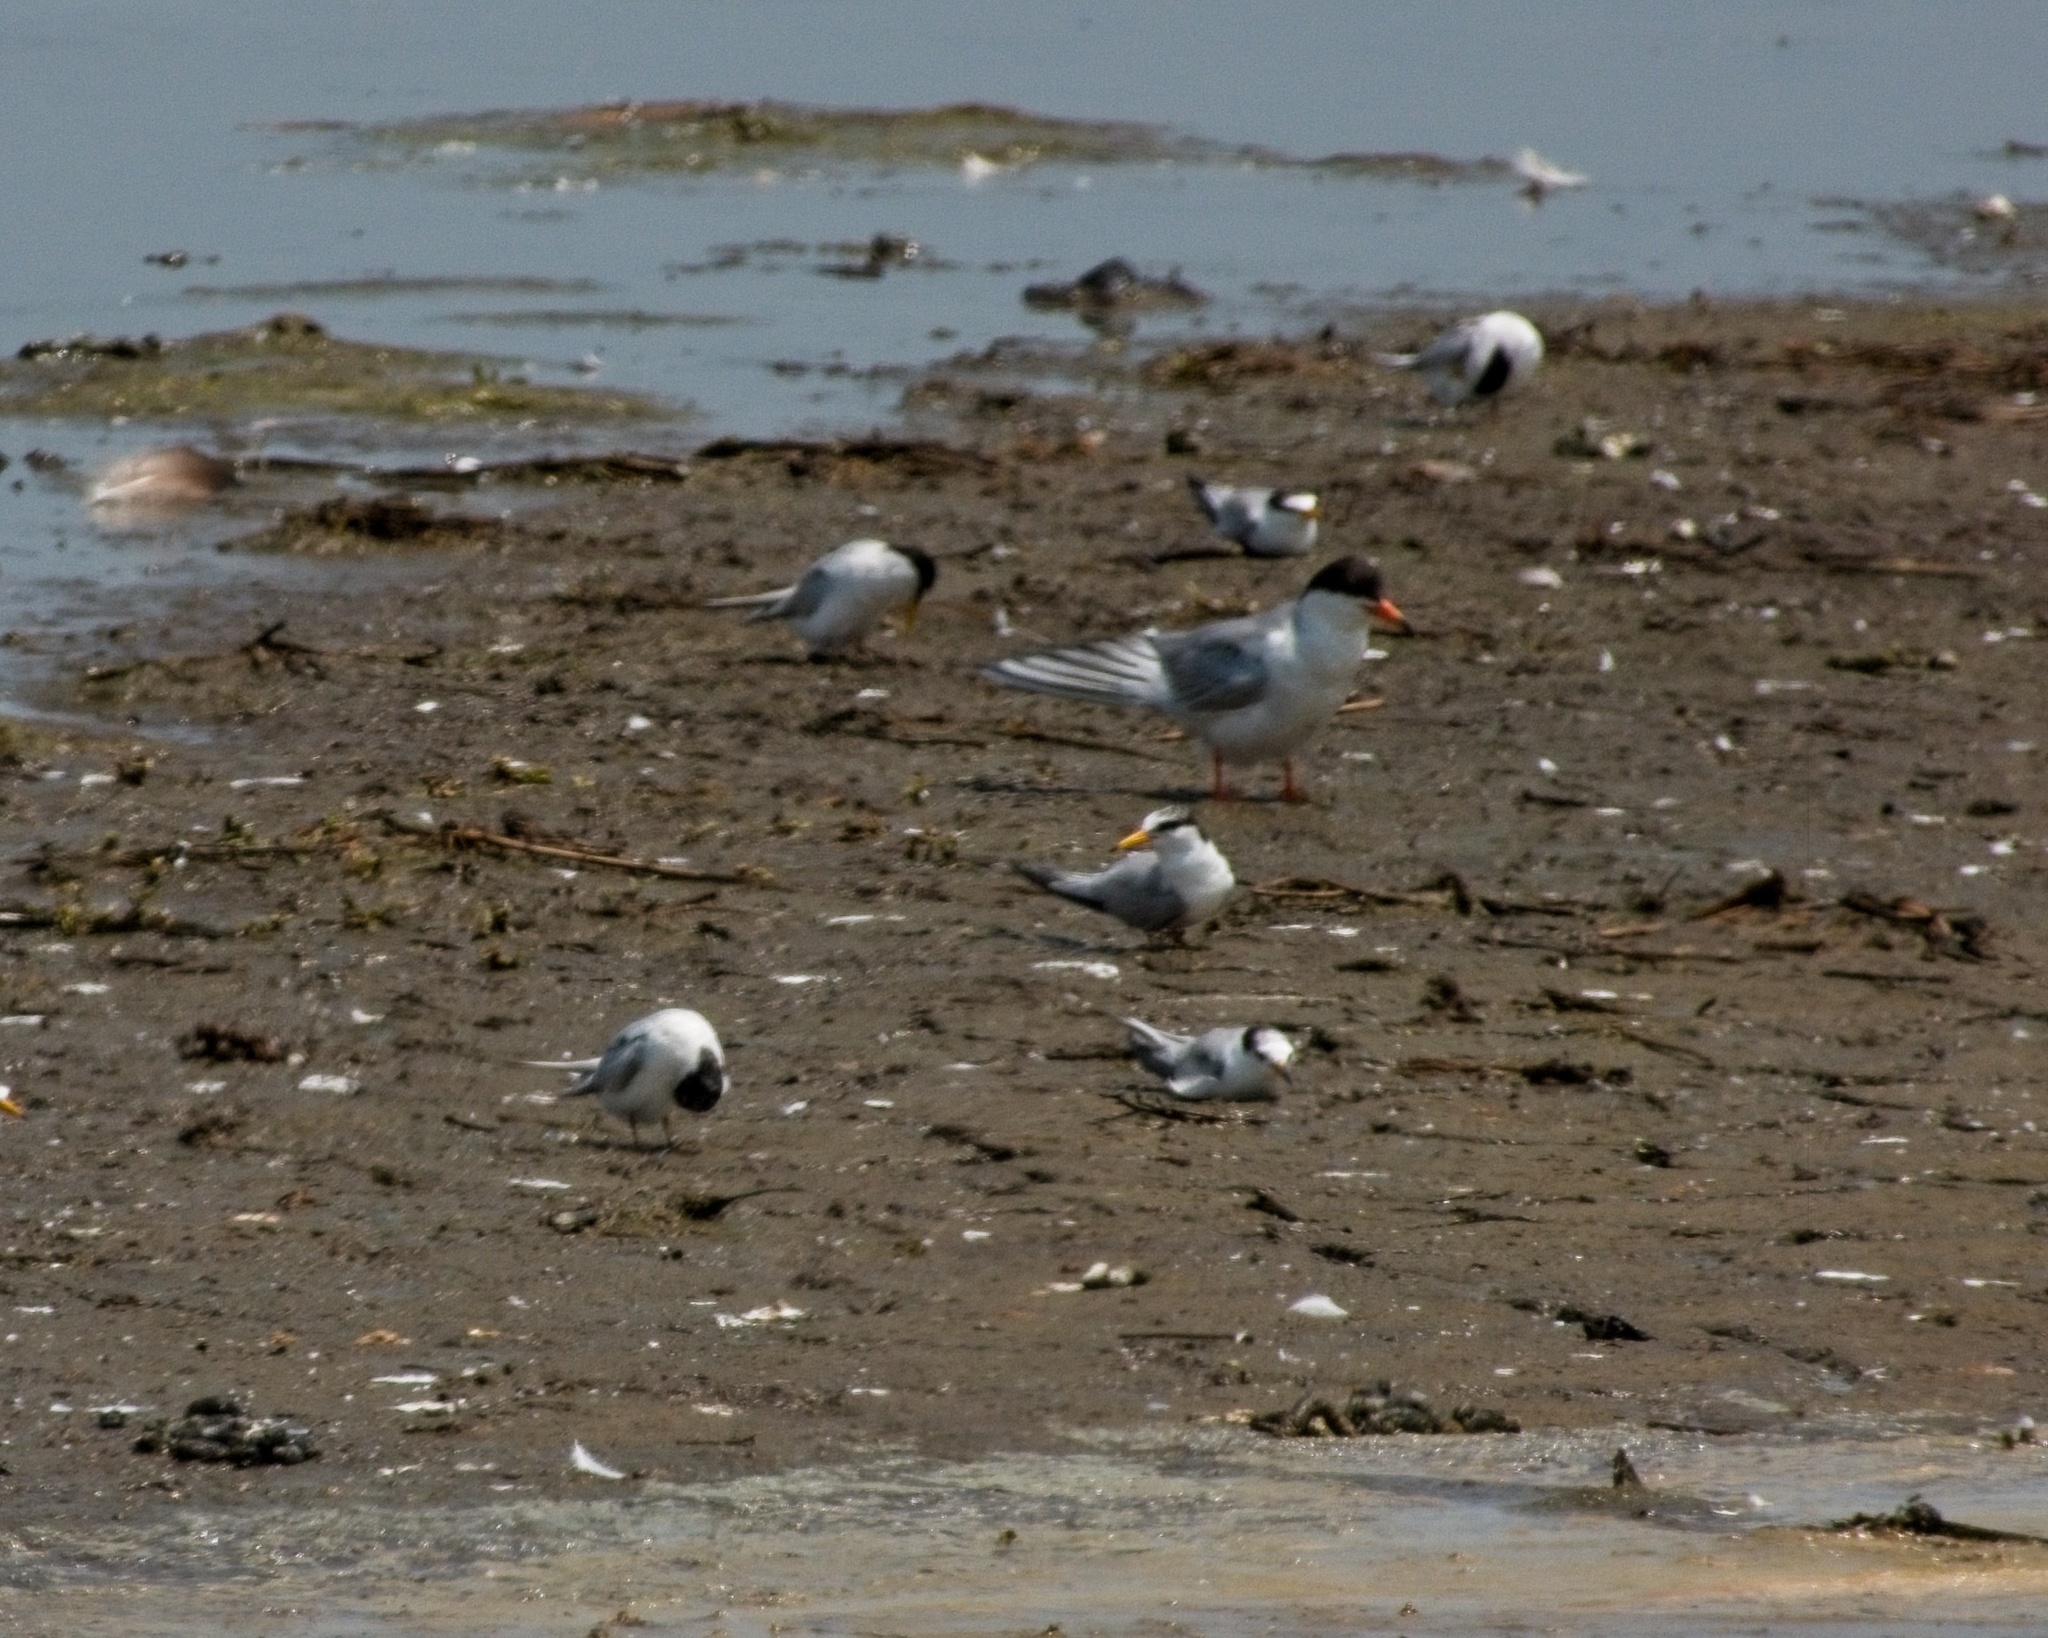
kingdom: Animalia
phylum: Chordata
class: Aves
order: Charadriiformes
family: Laridae
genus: Sternula
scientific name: Sternula antillarum
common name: Least tern
